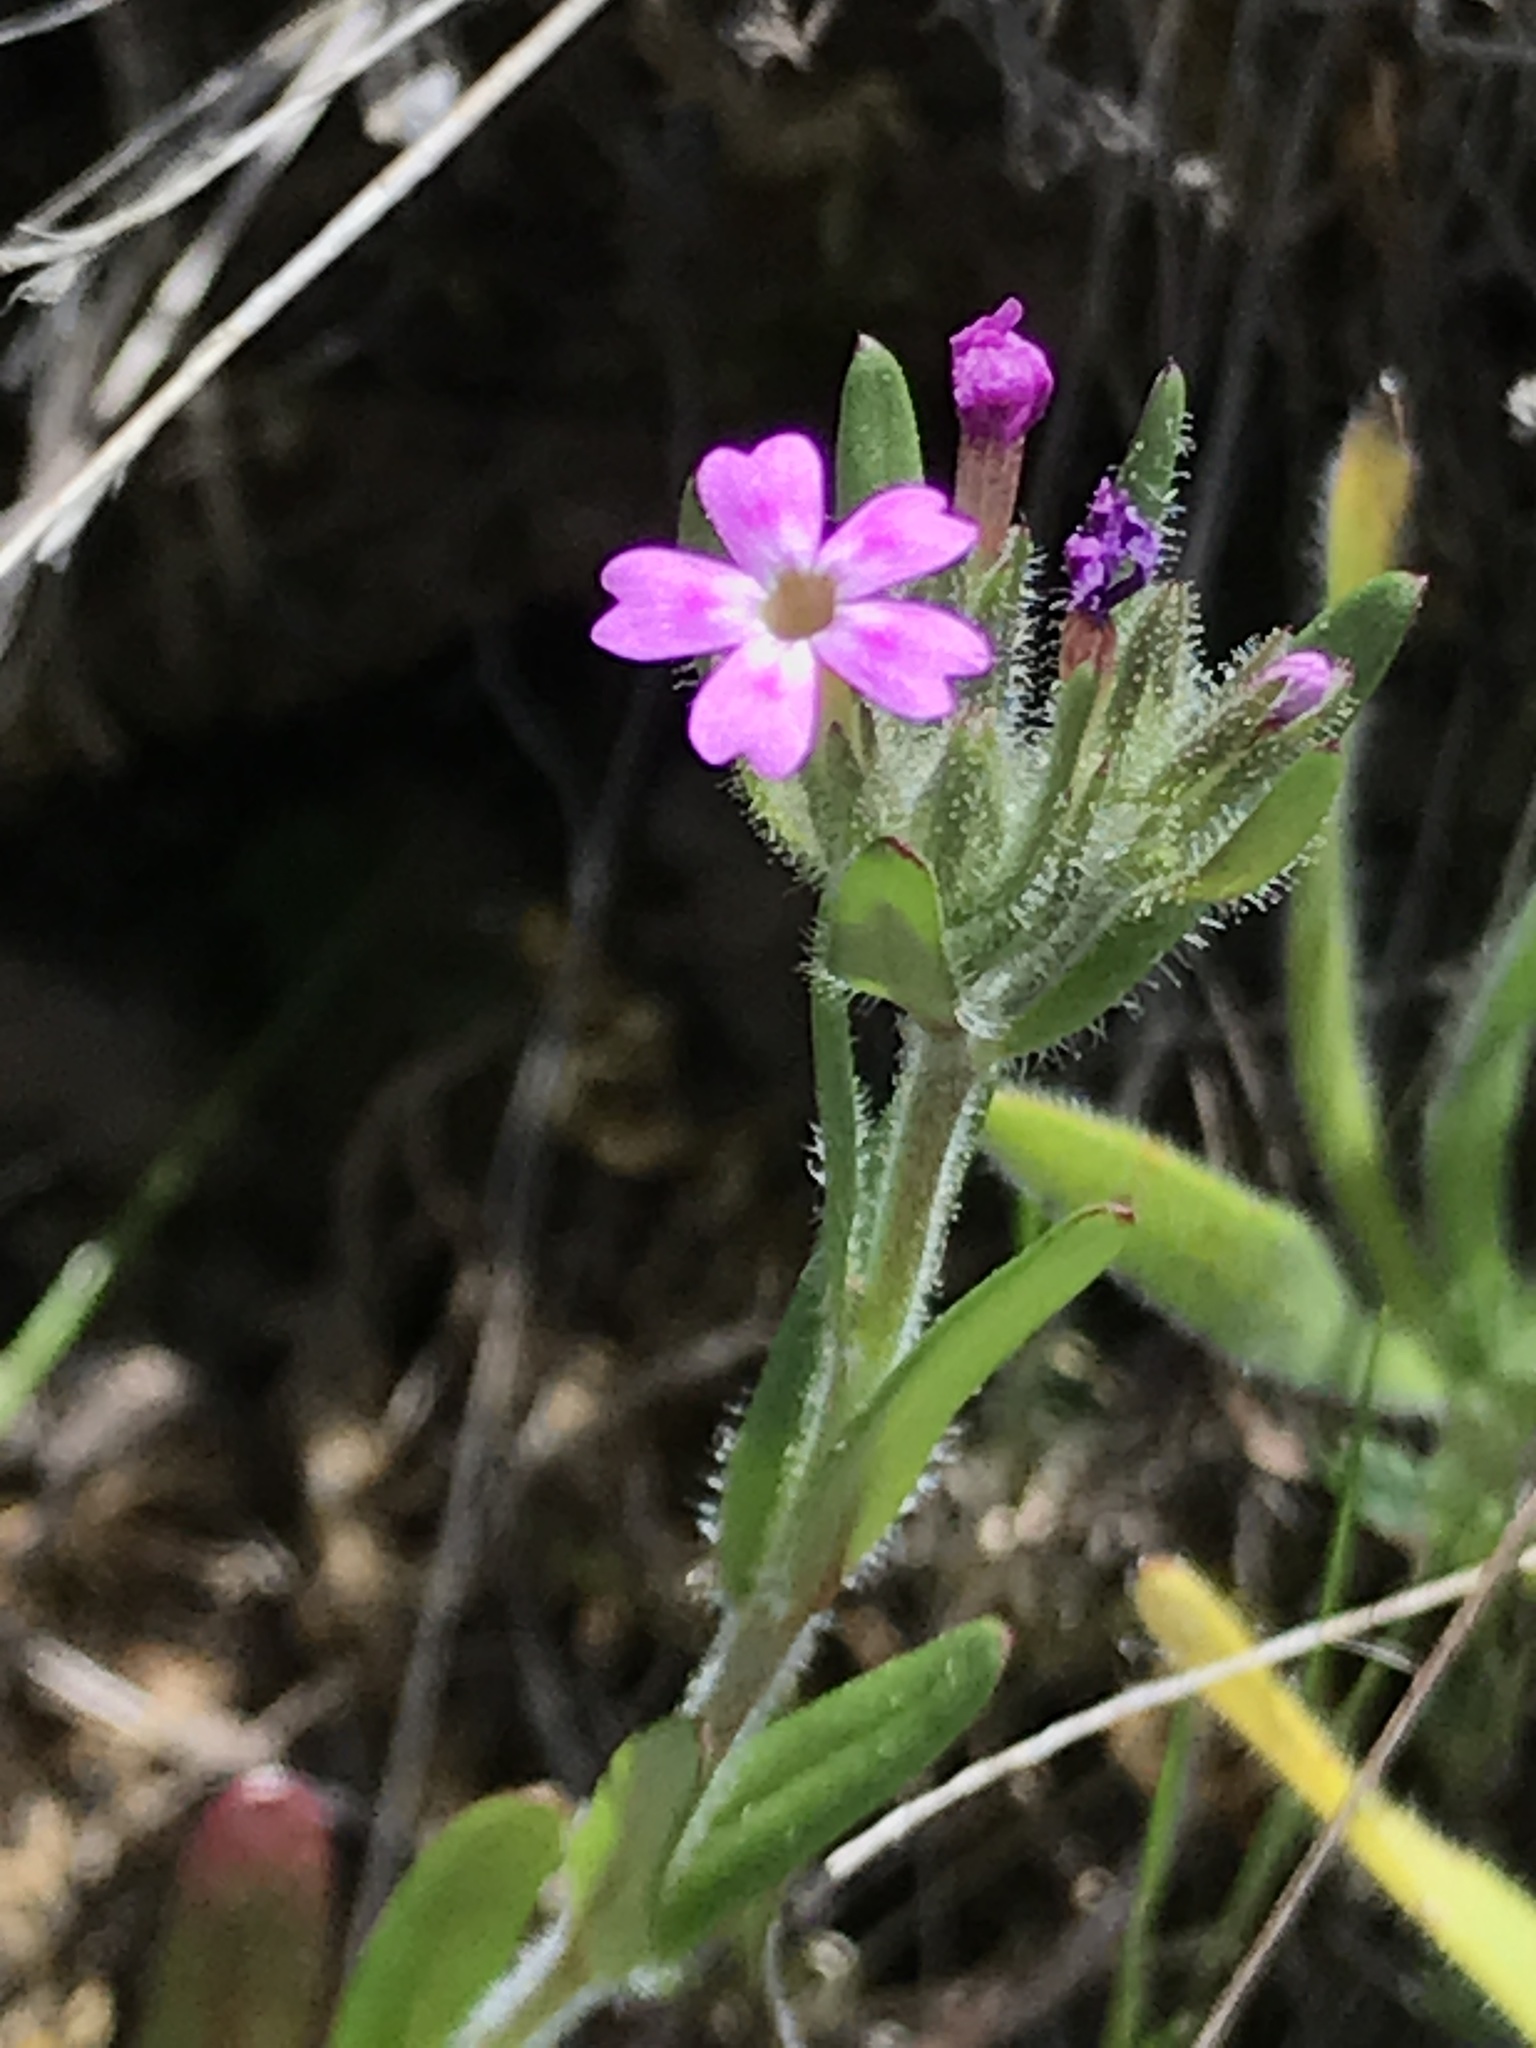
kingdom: Plantae
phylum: Tracheophyta
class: Magnoliopsida
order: Ericales
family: Polemoniaceae
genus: Phlox
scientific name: Phlox gracilis
